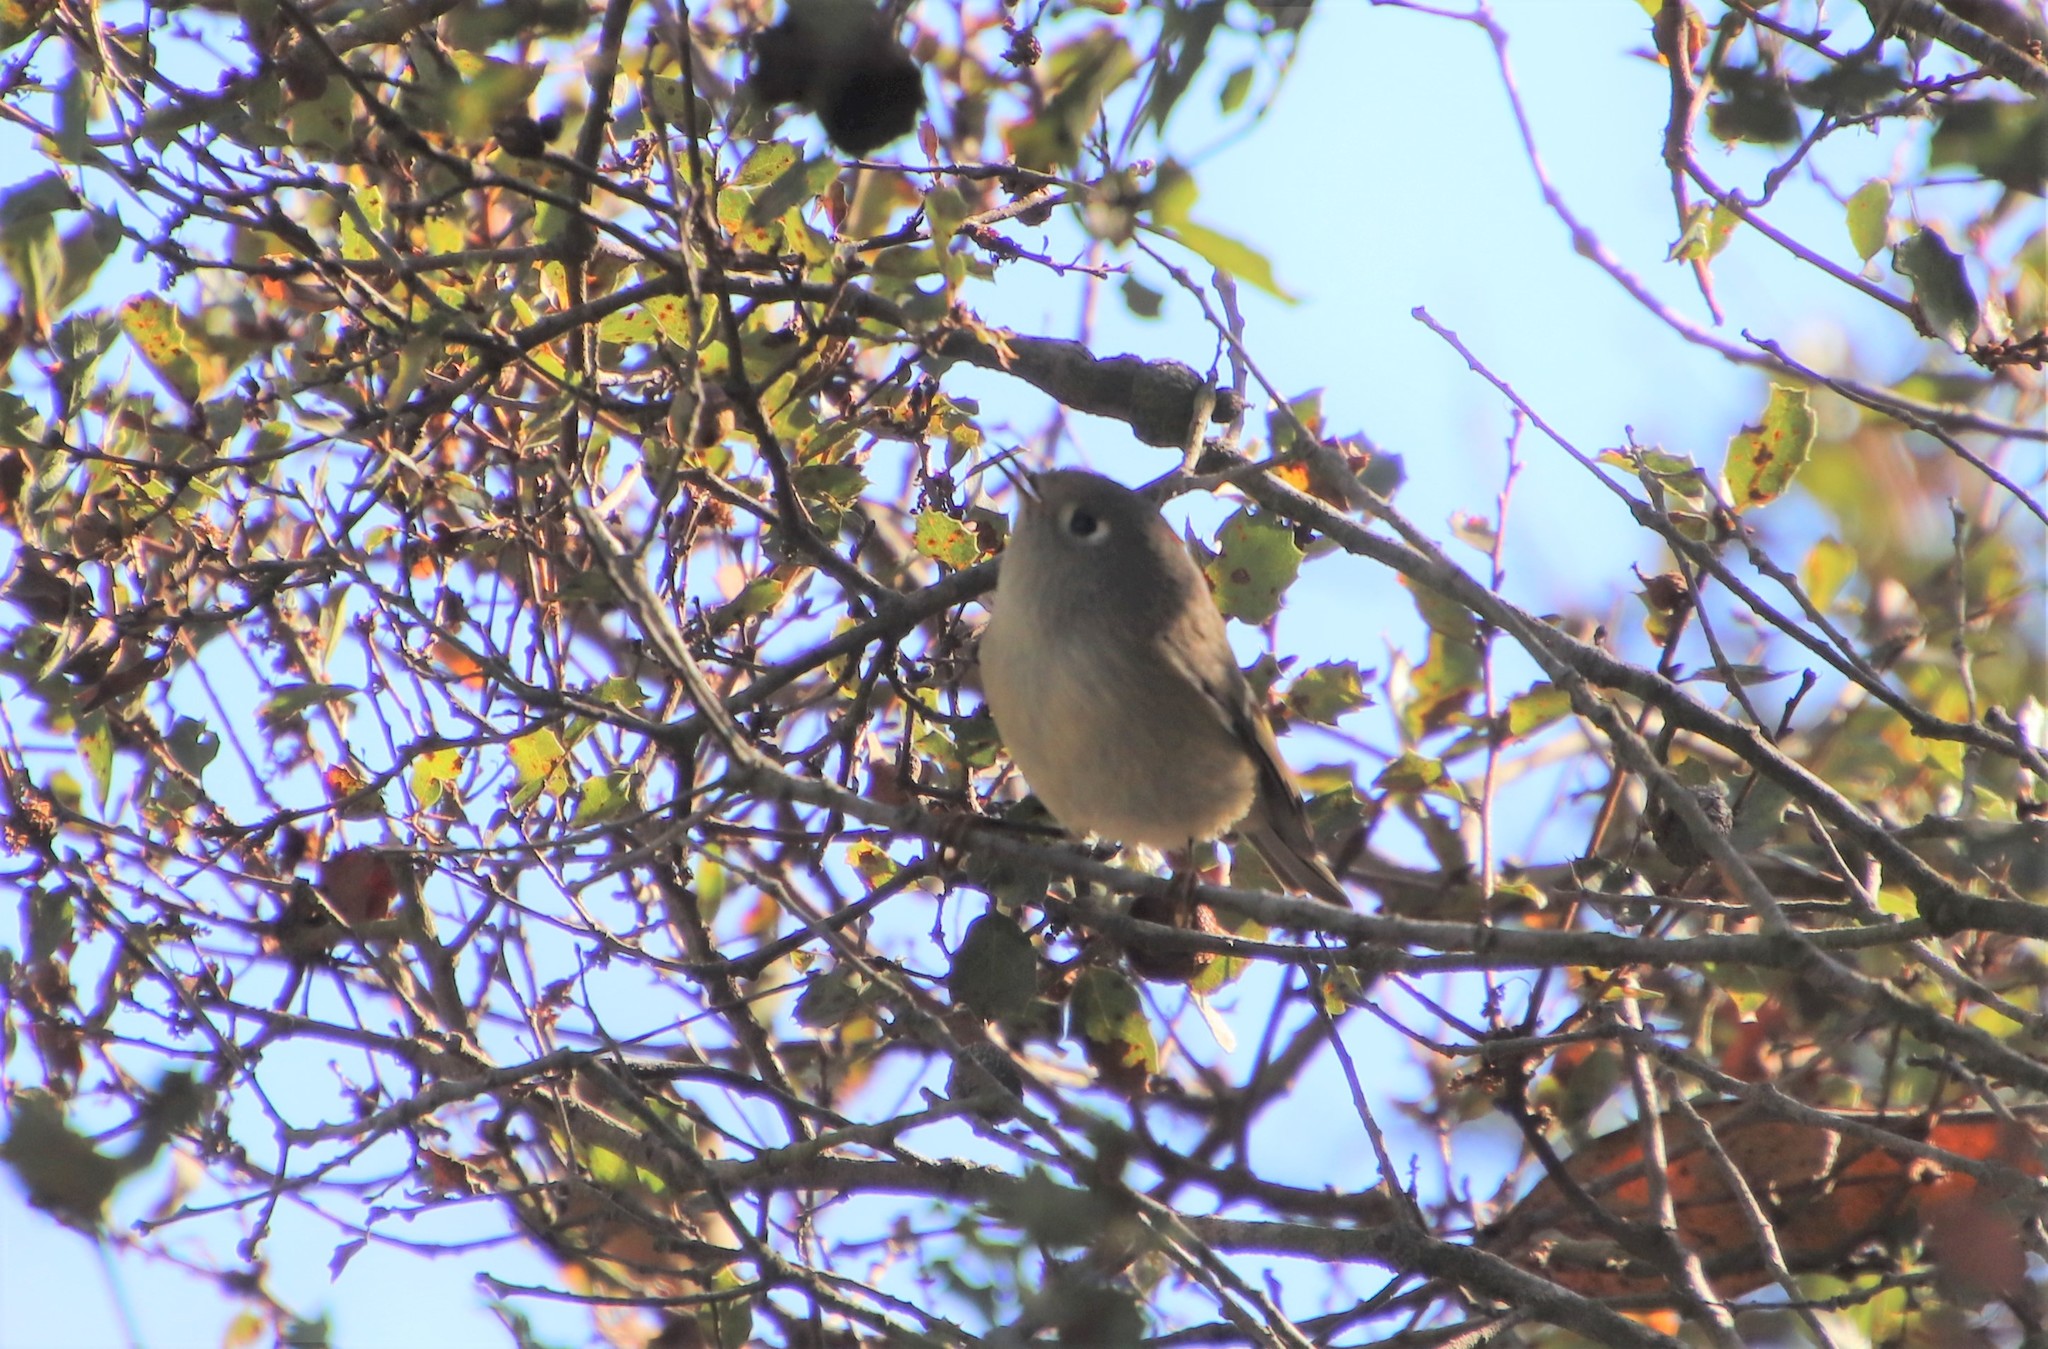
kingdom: Animalia
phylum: Chordata
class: Aves
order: Passeriformes
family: Regulidae
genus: Regulus
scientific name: Regulus calendula
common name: Ruby-crowned kinglet
